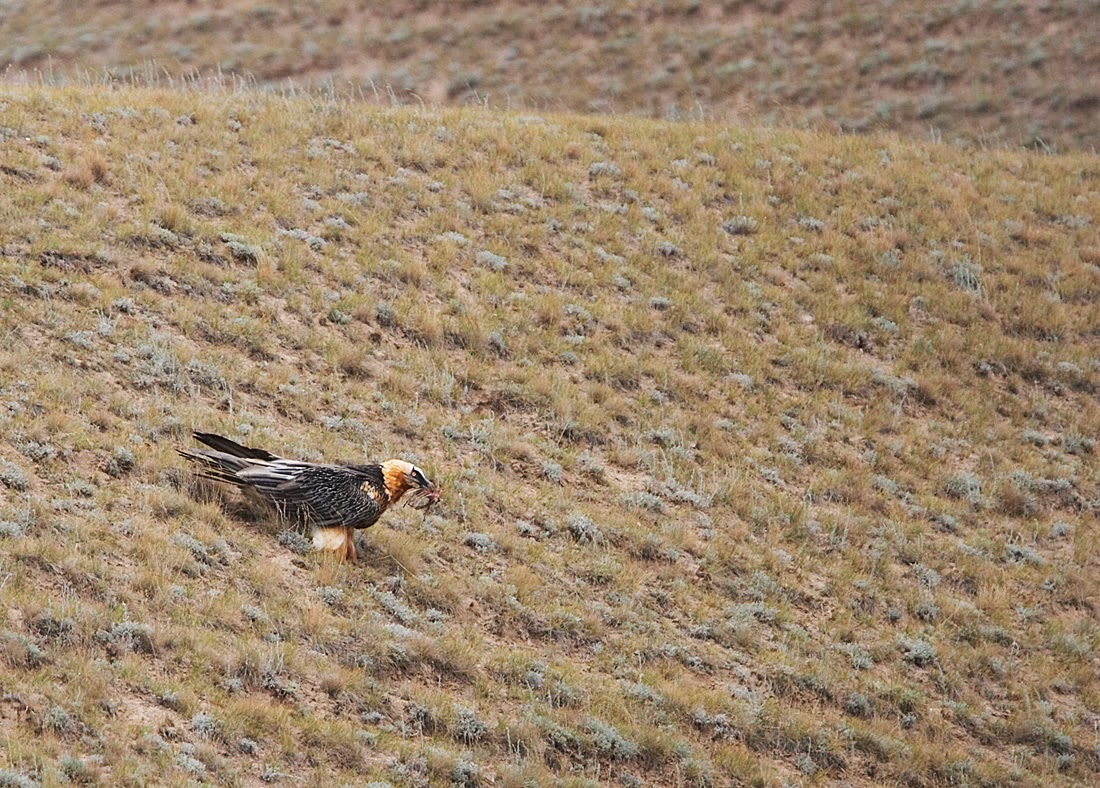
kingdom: Animalia
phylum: Chordata
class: Aves
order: Accipitriformes
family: Accipitridae
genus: Gypaetus
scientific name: Gypaetus barbatus
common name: Bearded vulture
